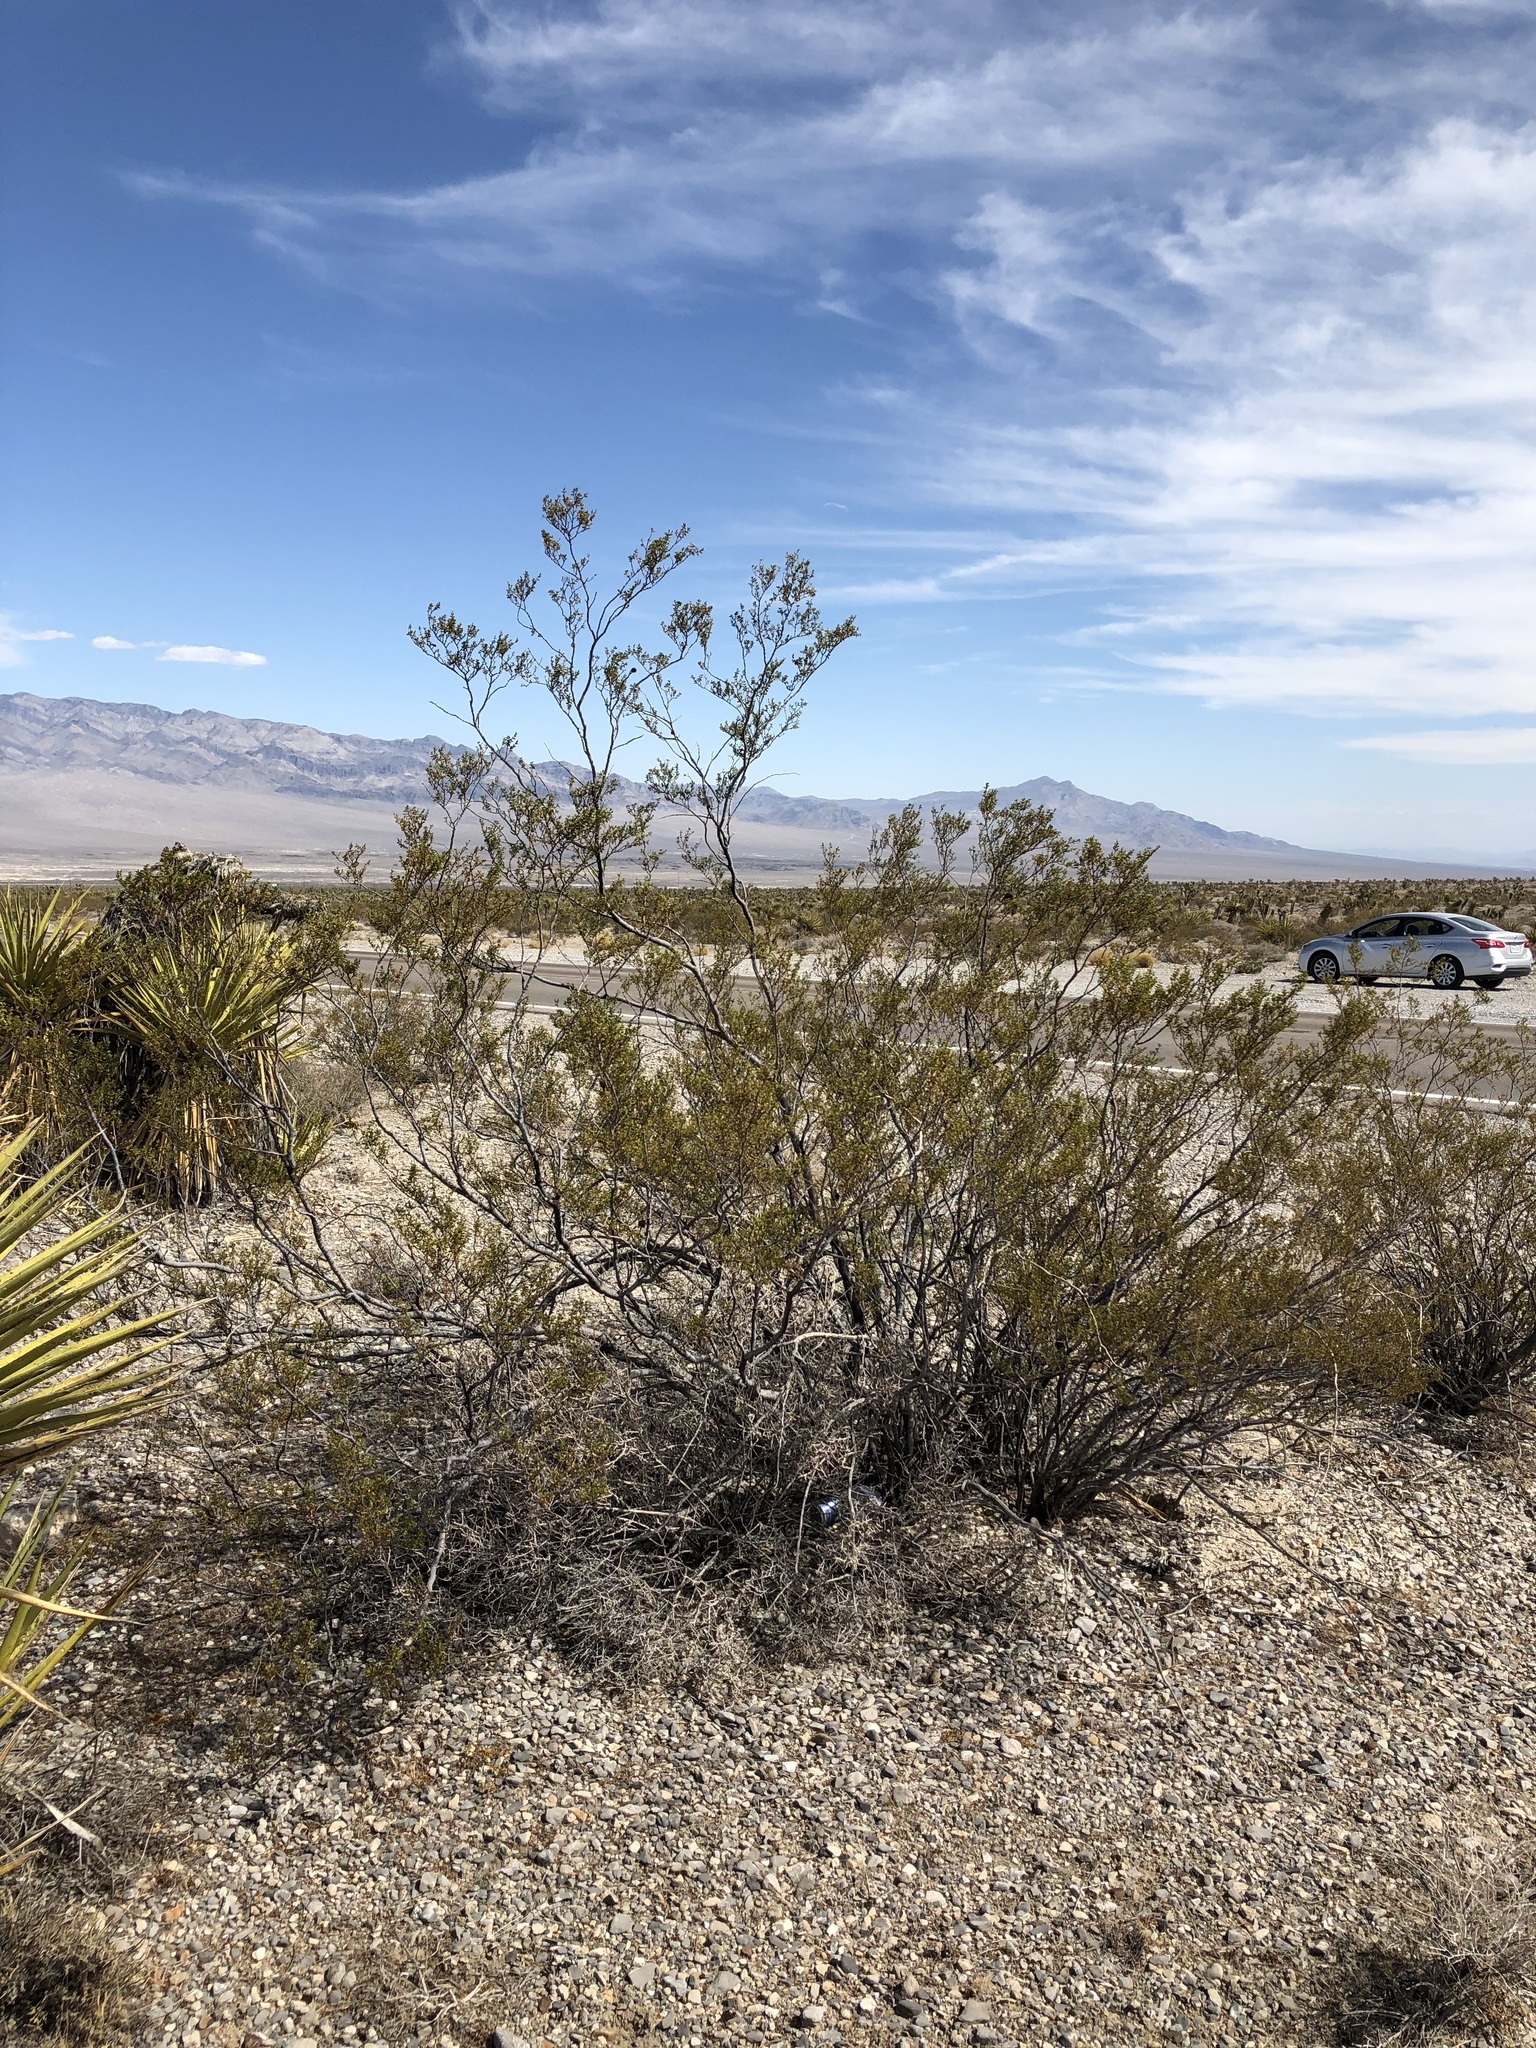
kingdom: Plantae
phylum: Tracheophyta
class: Magnoliopsida
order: Zygophyllales
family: Zygophyllaceae
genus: Larrea
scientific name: Larrea tridentata
